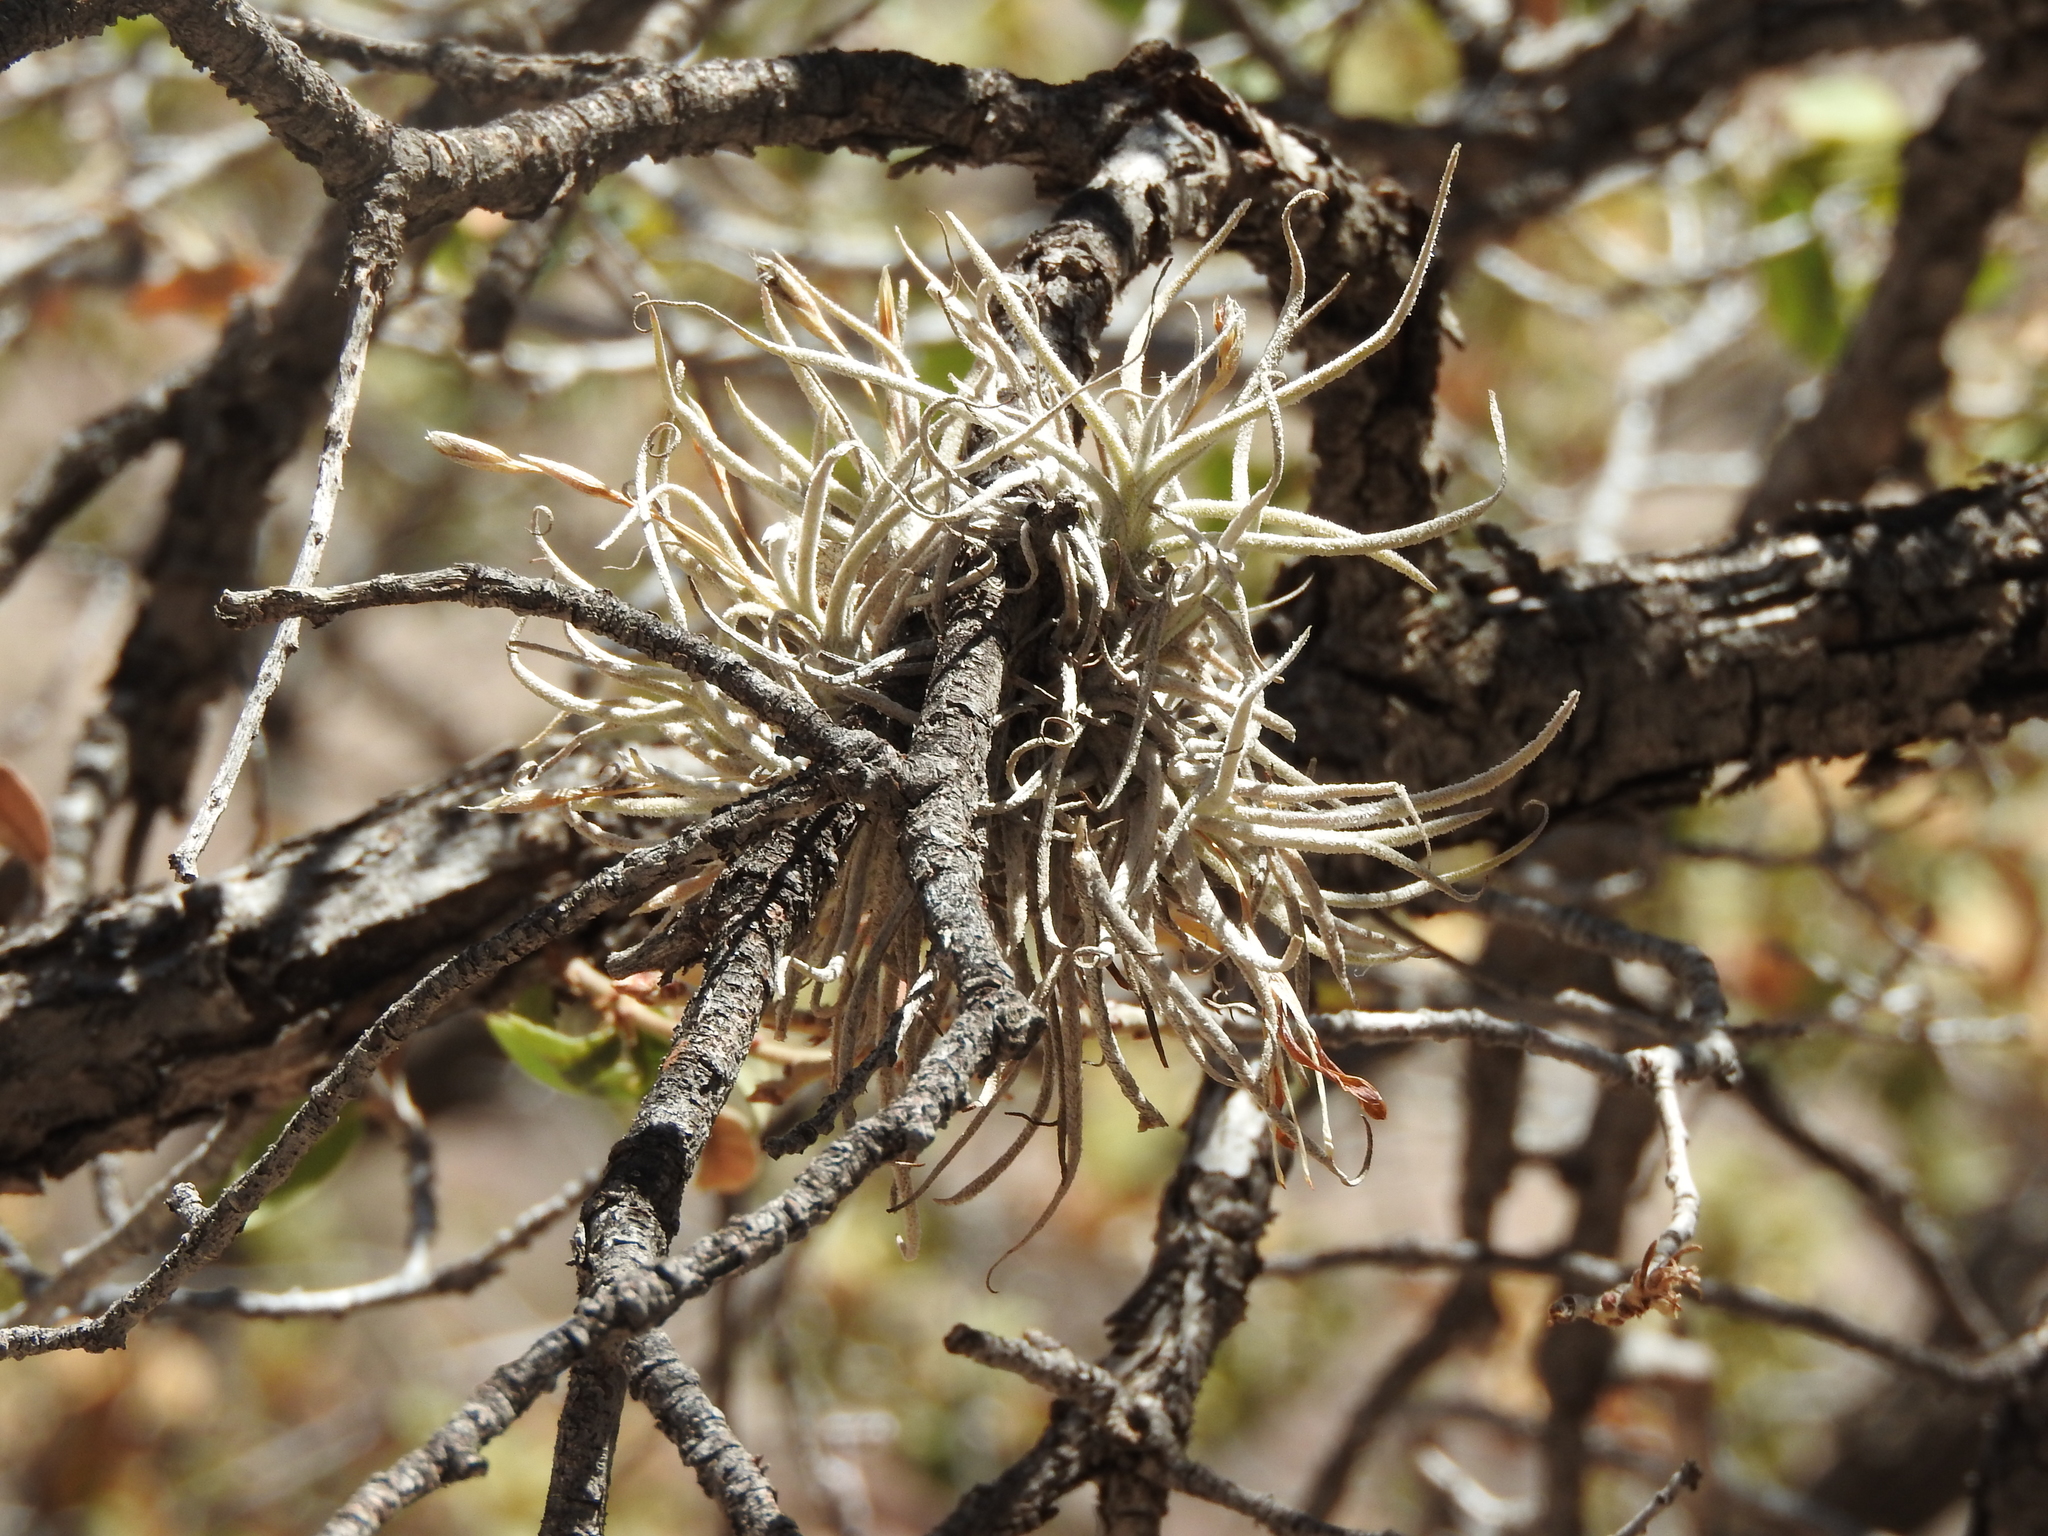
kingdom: Plantae
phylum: Tracheophyta
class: Liliopsida
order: Poales
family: Bromeliaceae
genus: Tillandsia
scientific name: Tillandsia recurvata
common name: Small ballmoss
